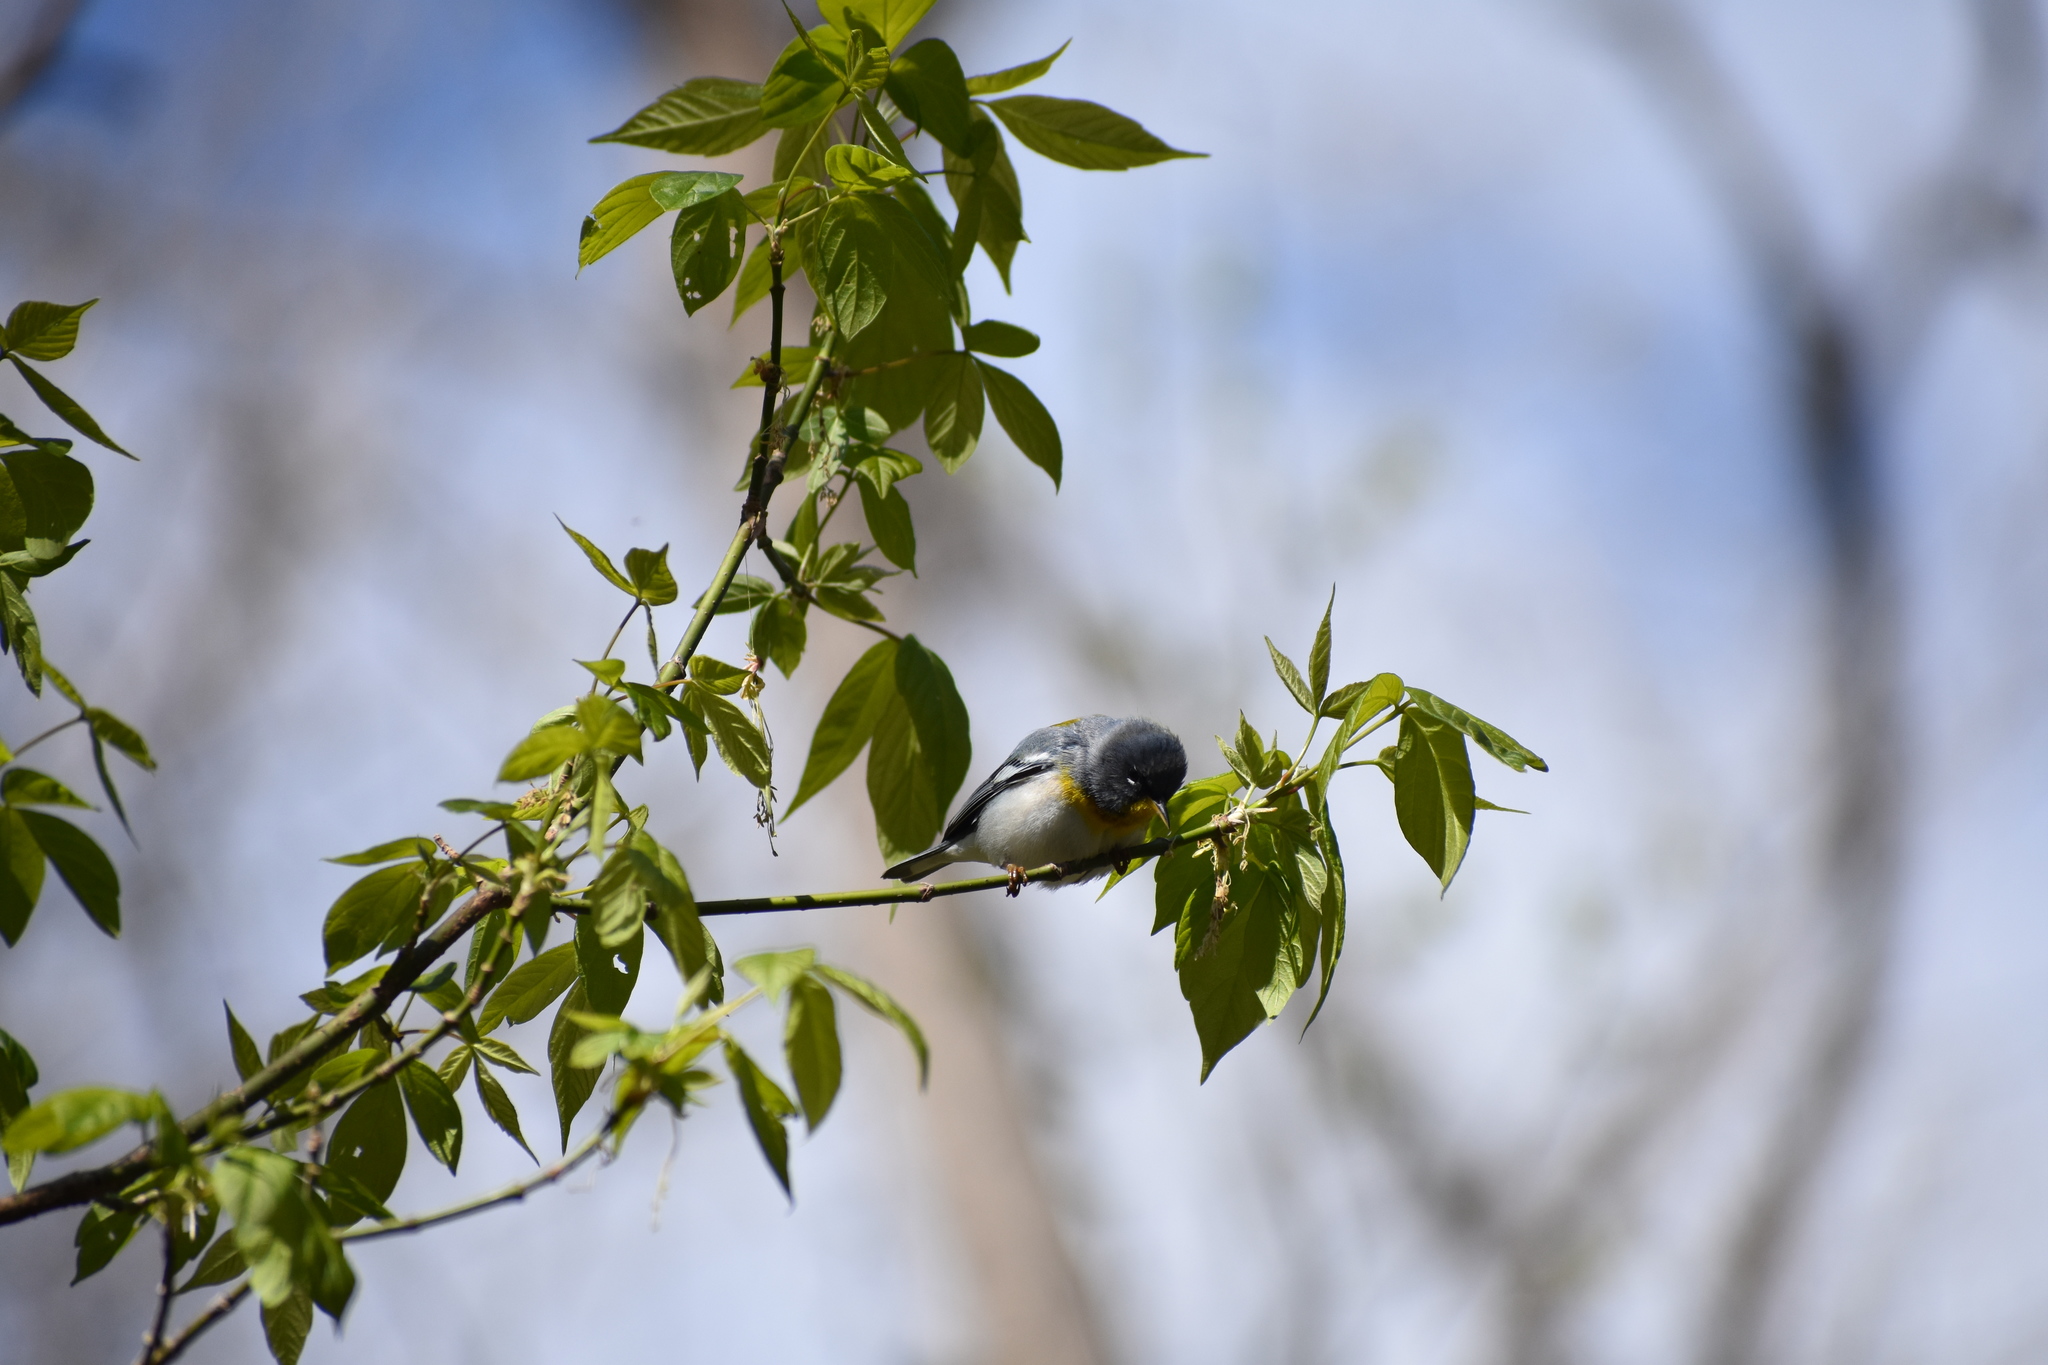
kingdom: Animalia
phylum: Chordata
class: Aves
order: Passeriformes
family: Parulidae
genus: Setophaga
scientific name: Setophaga americana
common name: Northern parula
